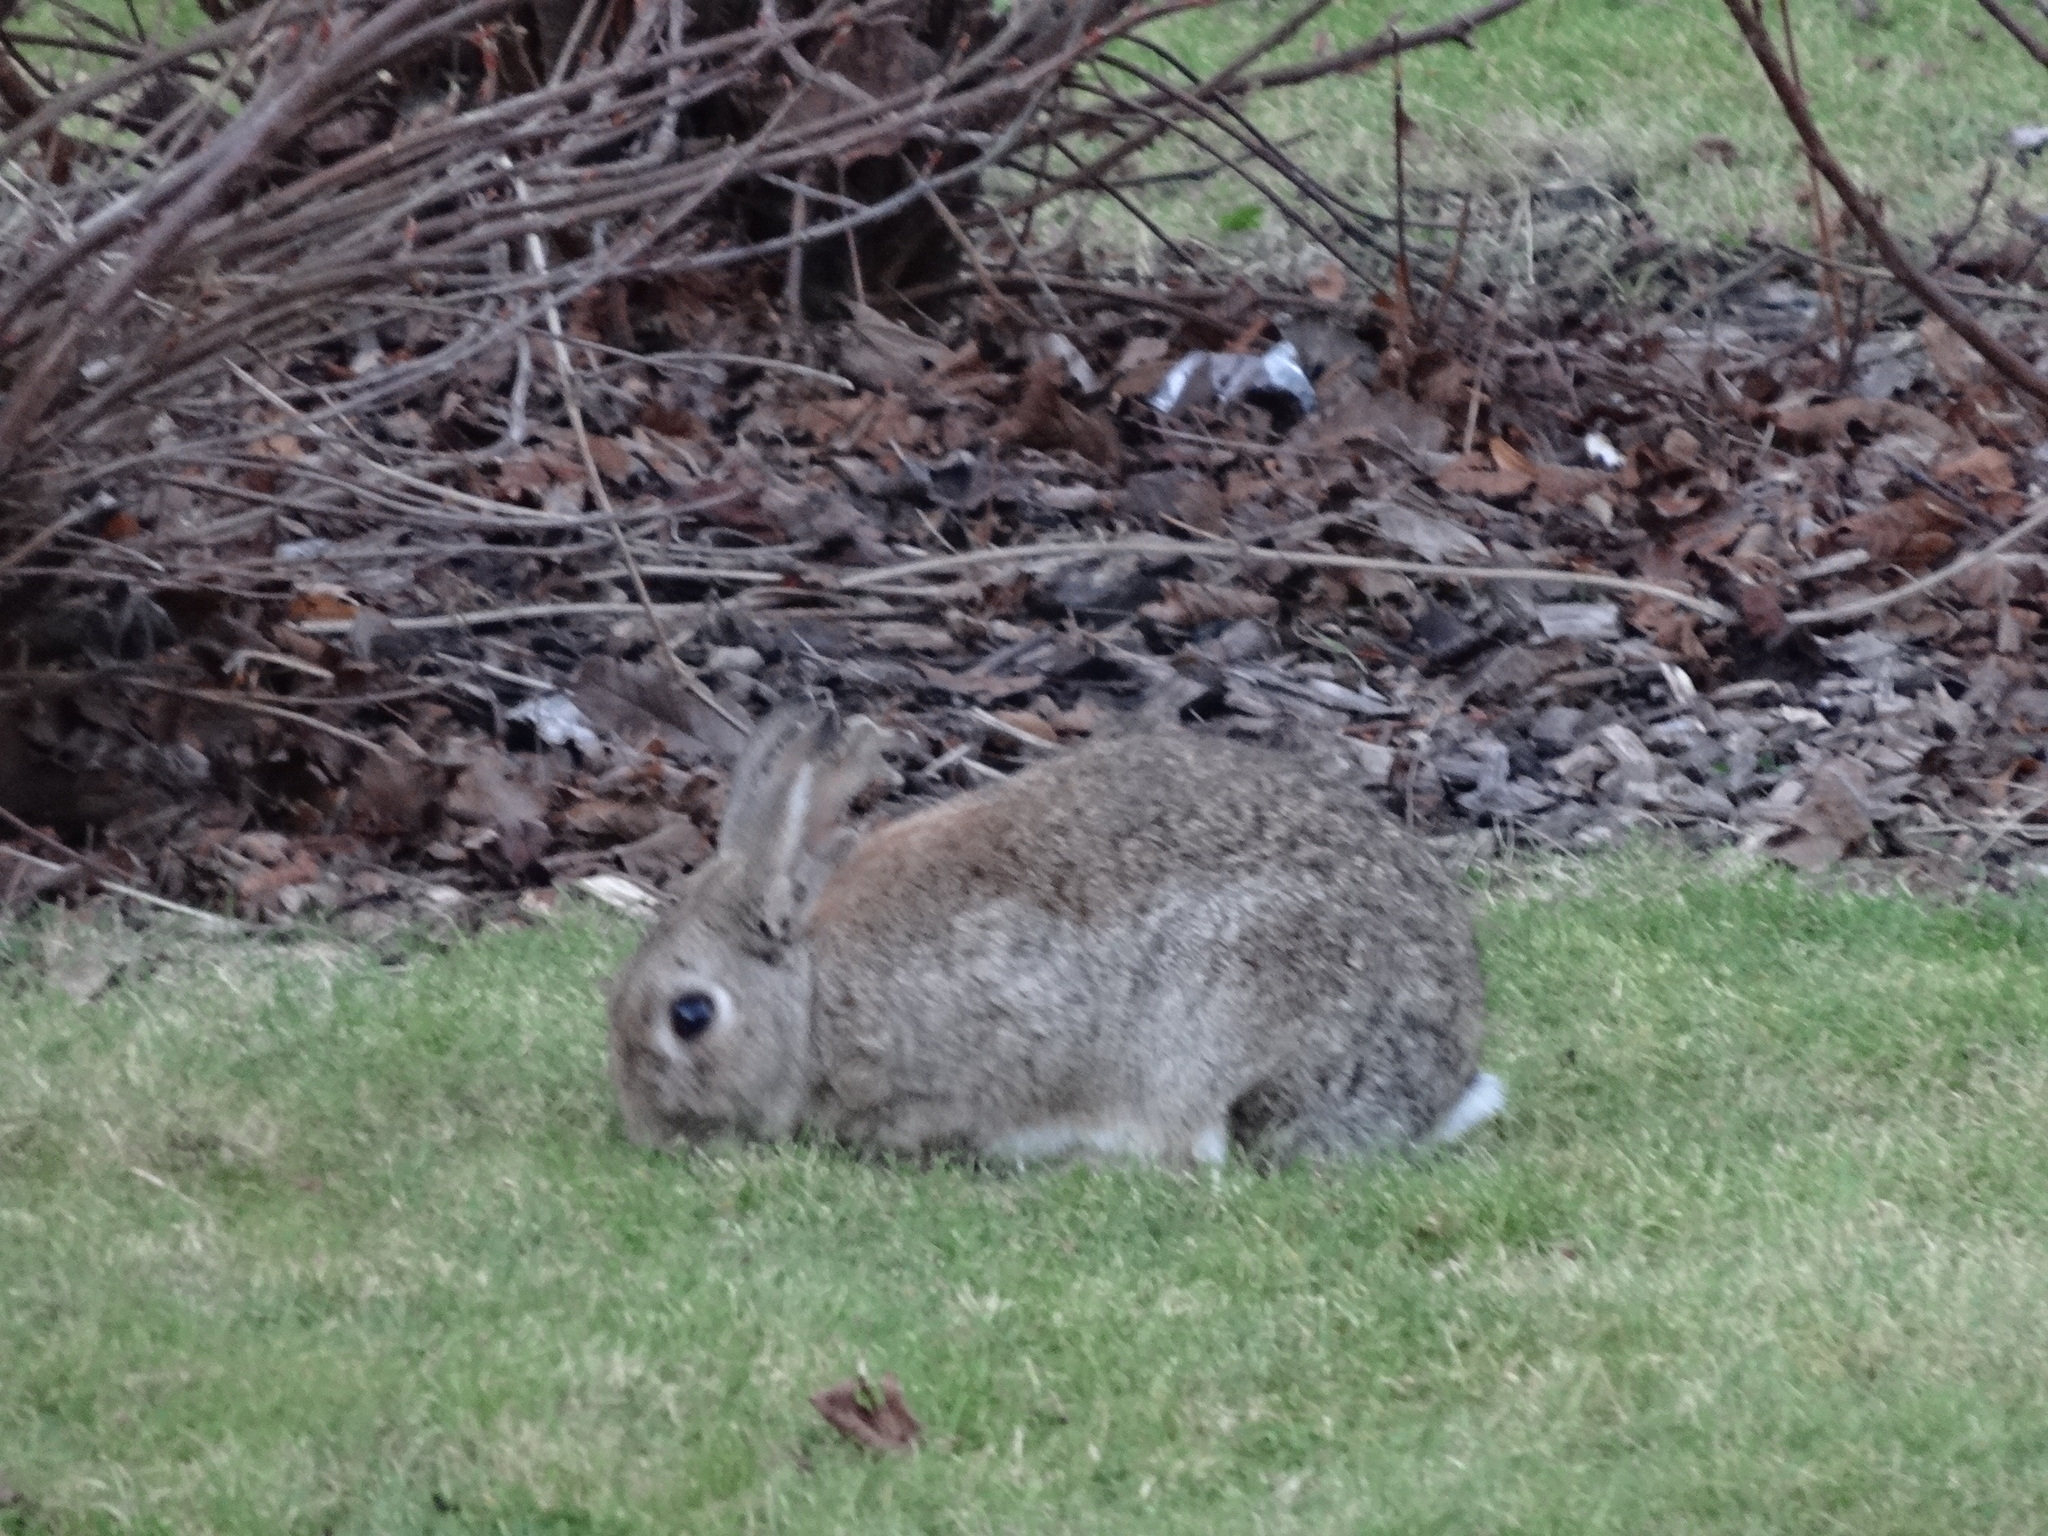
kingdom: Animalia
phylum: Chordata
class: Mammalia
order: Lagomorpha
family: Leporidae
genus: Oryctolagus
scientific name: Oryctolagus cuniculus
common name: European rabbit
